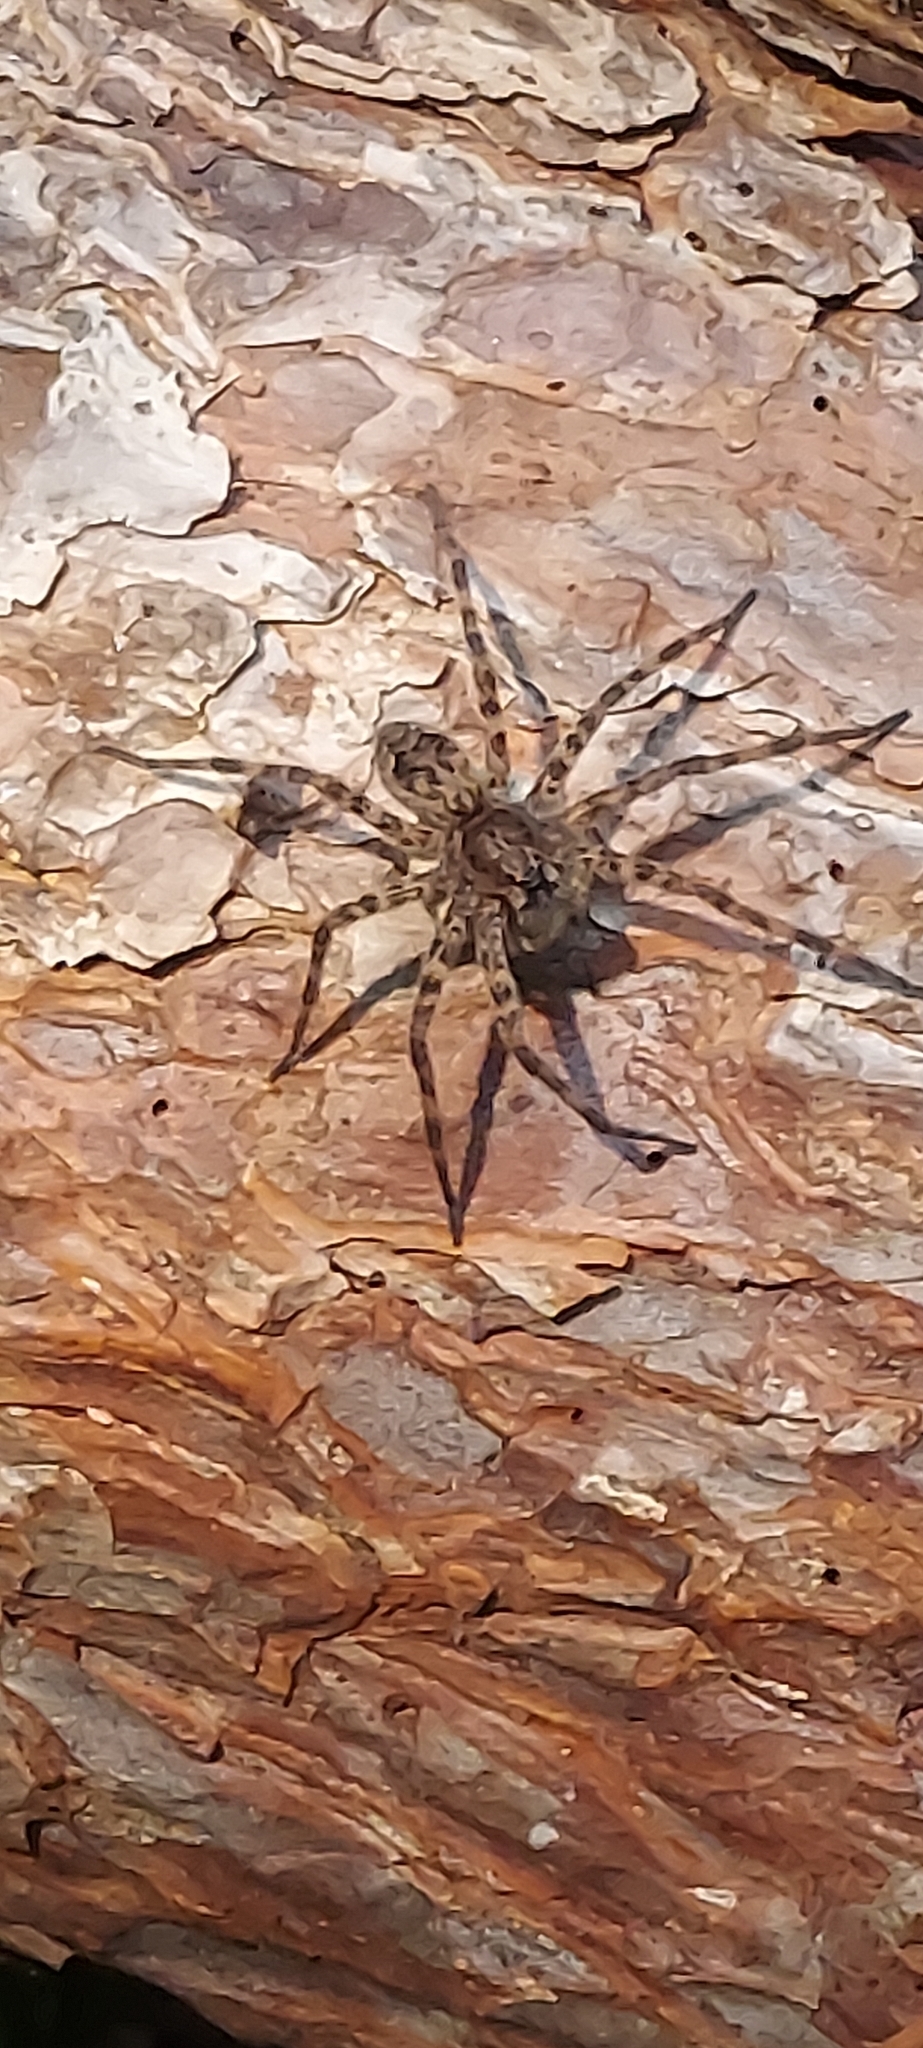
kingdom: Animalia
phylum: Arthropoda
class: Arachnida
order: Araneae
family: Pisauridae
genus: Dolomedes
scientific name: Dolomedes tenebrosus
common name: Dark fishing spider
